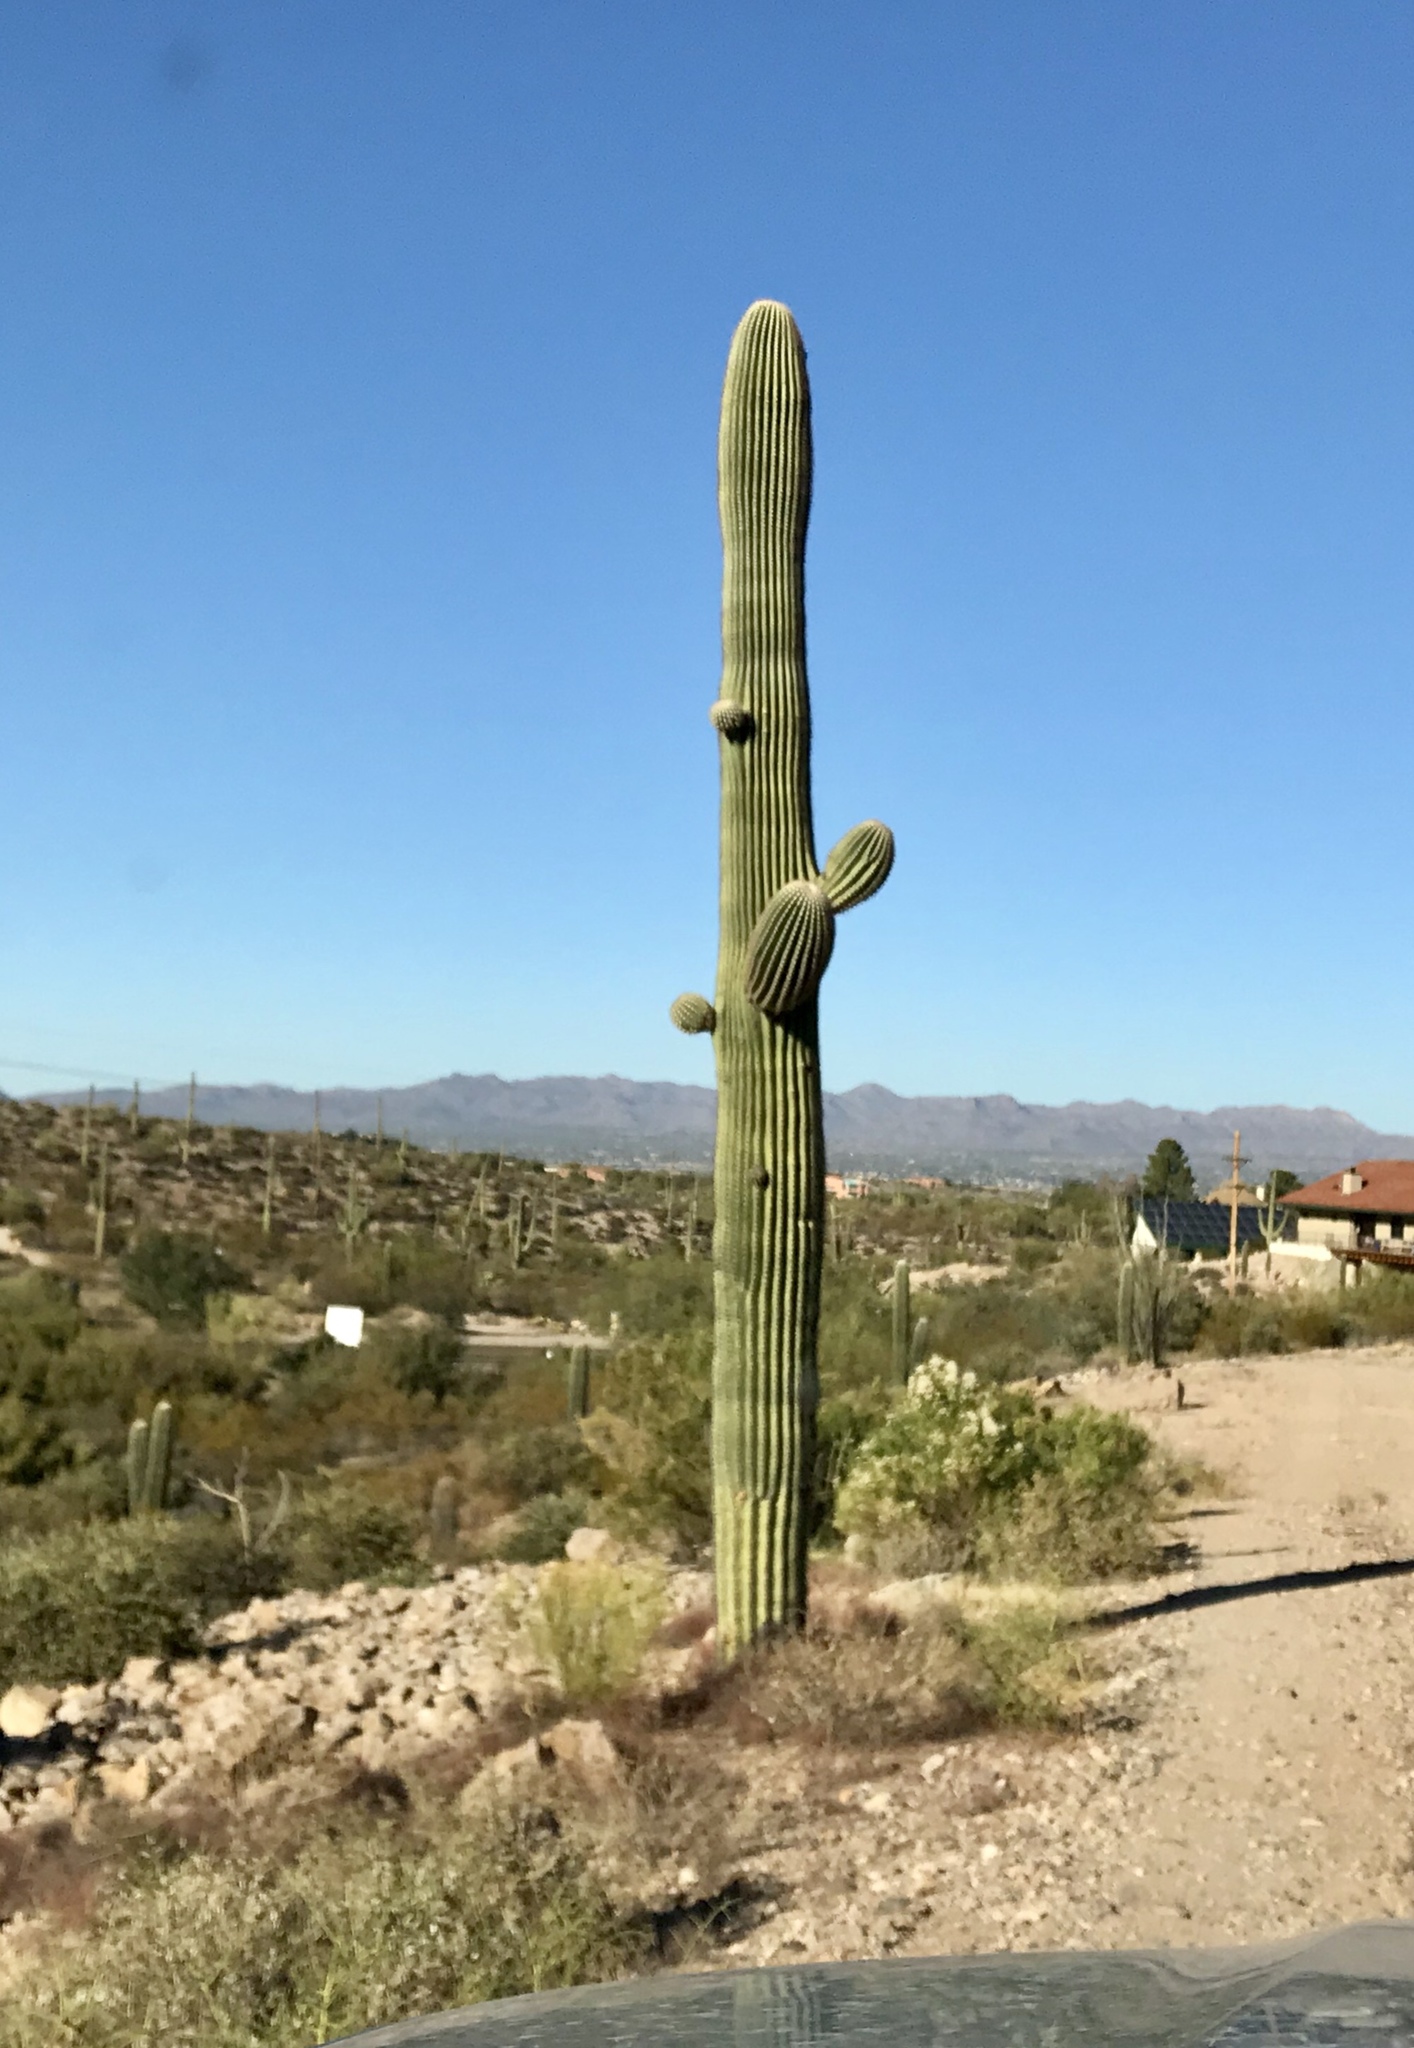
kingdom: Plantae
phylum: Tracheophyta
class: Magnoliopsida
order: Caryophyllales
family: Cactaceae
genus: Carnegiea
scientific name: Carnegiea gigantea
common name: Saguaro
